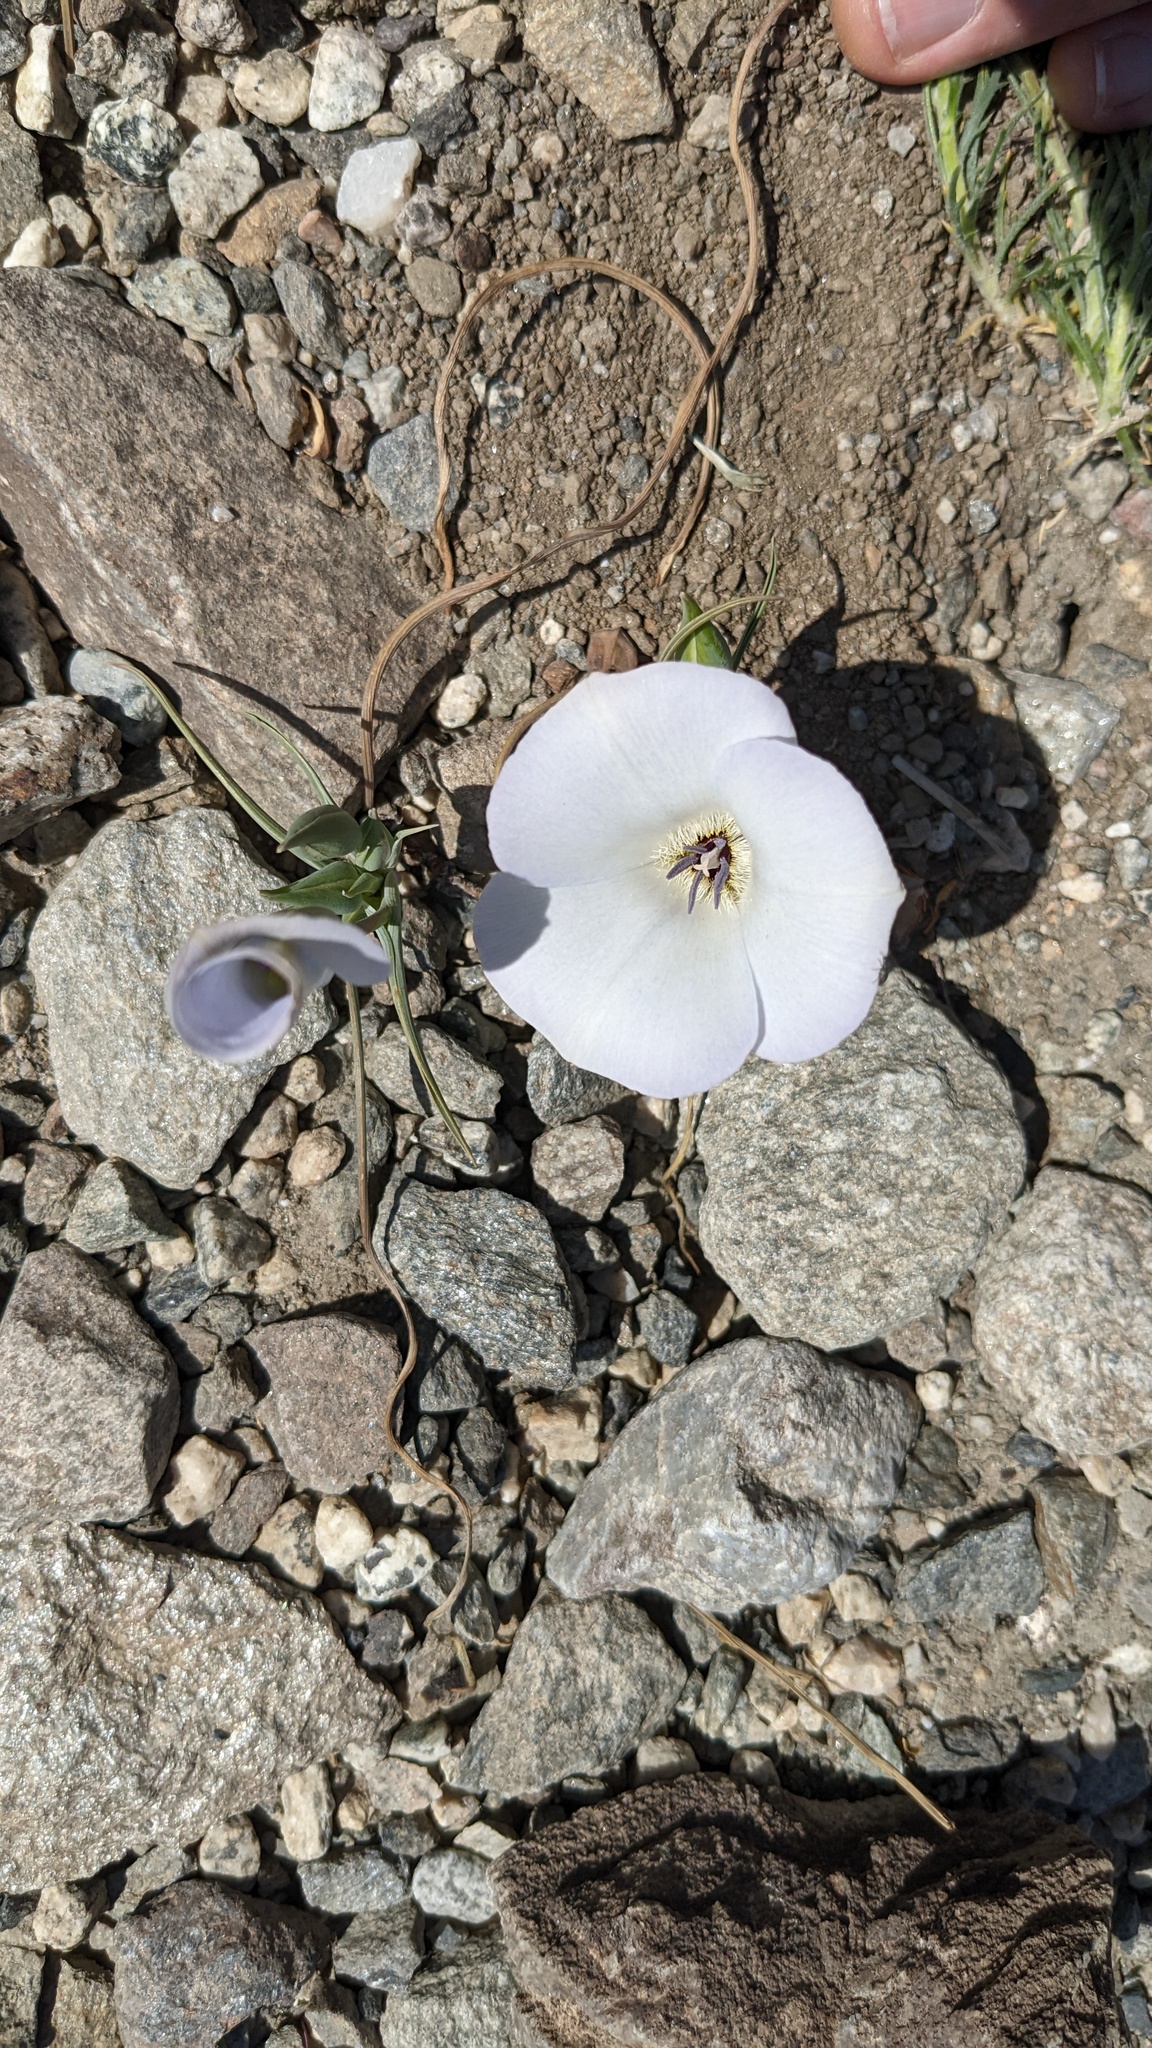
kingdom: Plantae
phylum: Tracheophyta
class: Liliopsida
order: Liliales
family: Liliaceae
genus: Calochortus
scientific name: Calochortus invenustus
